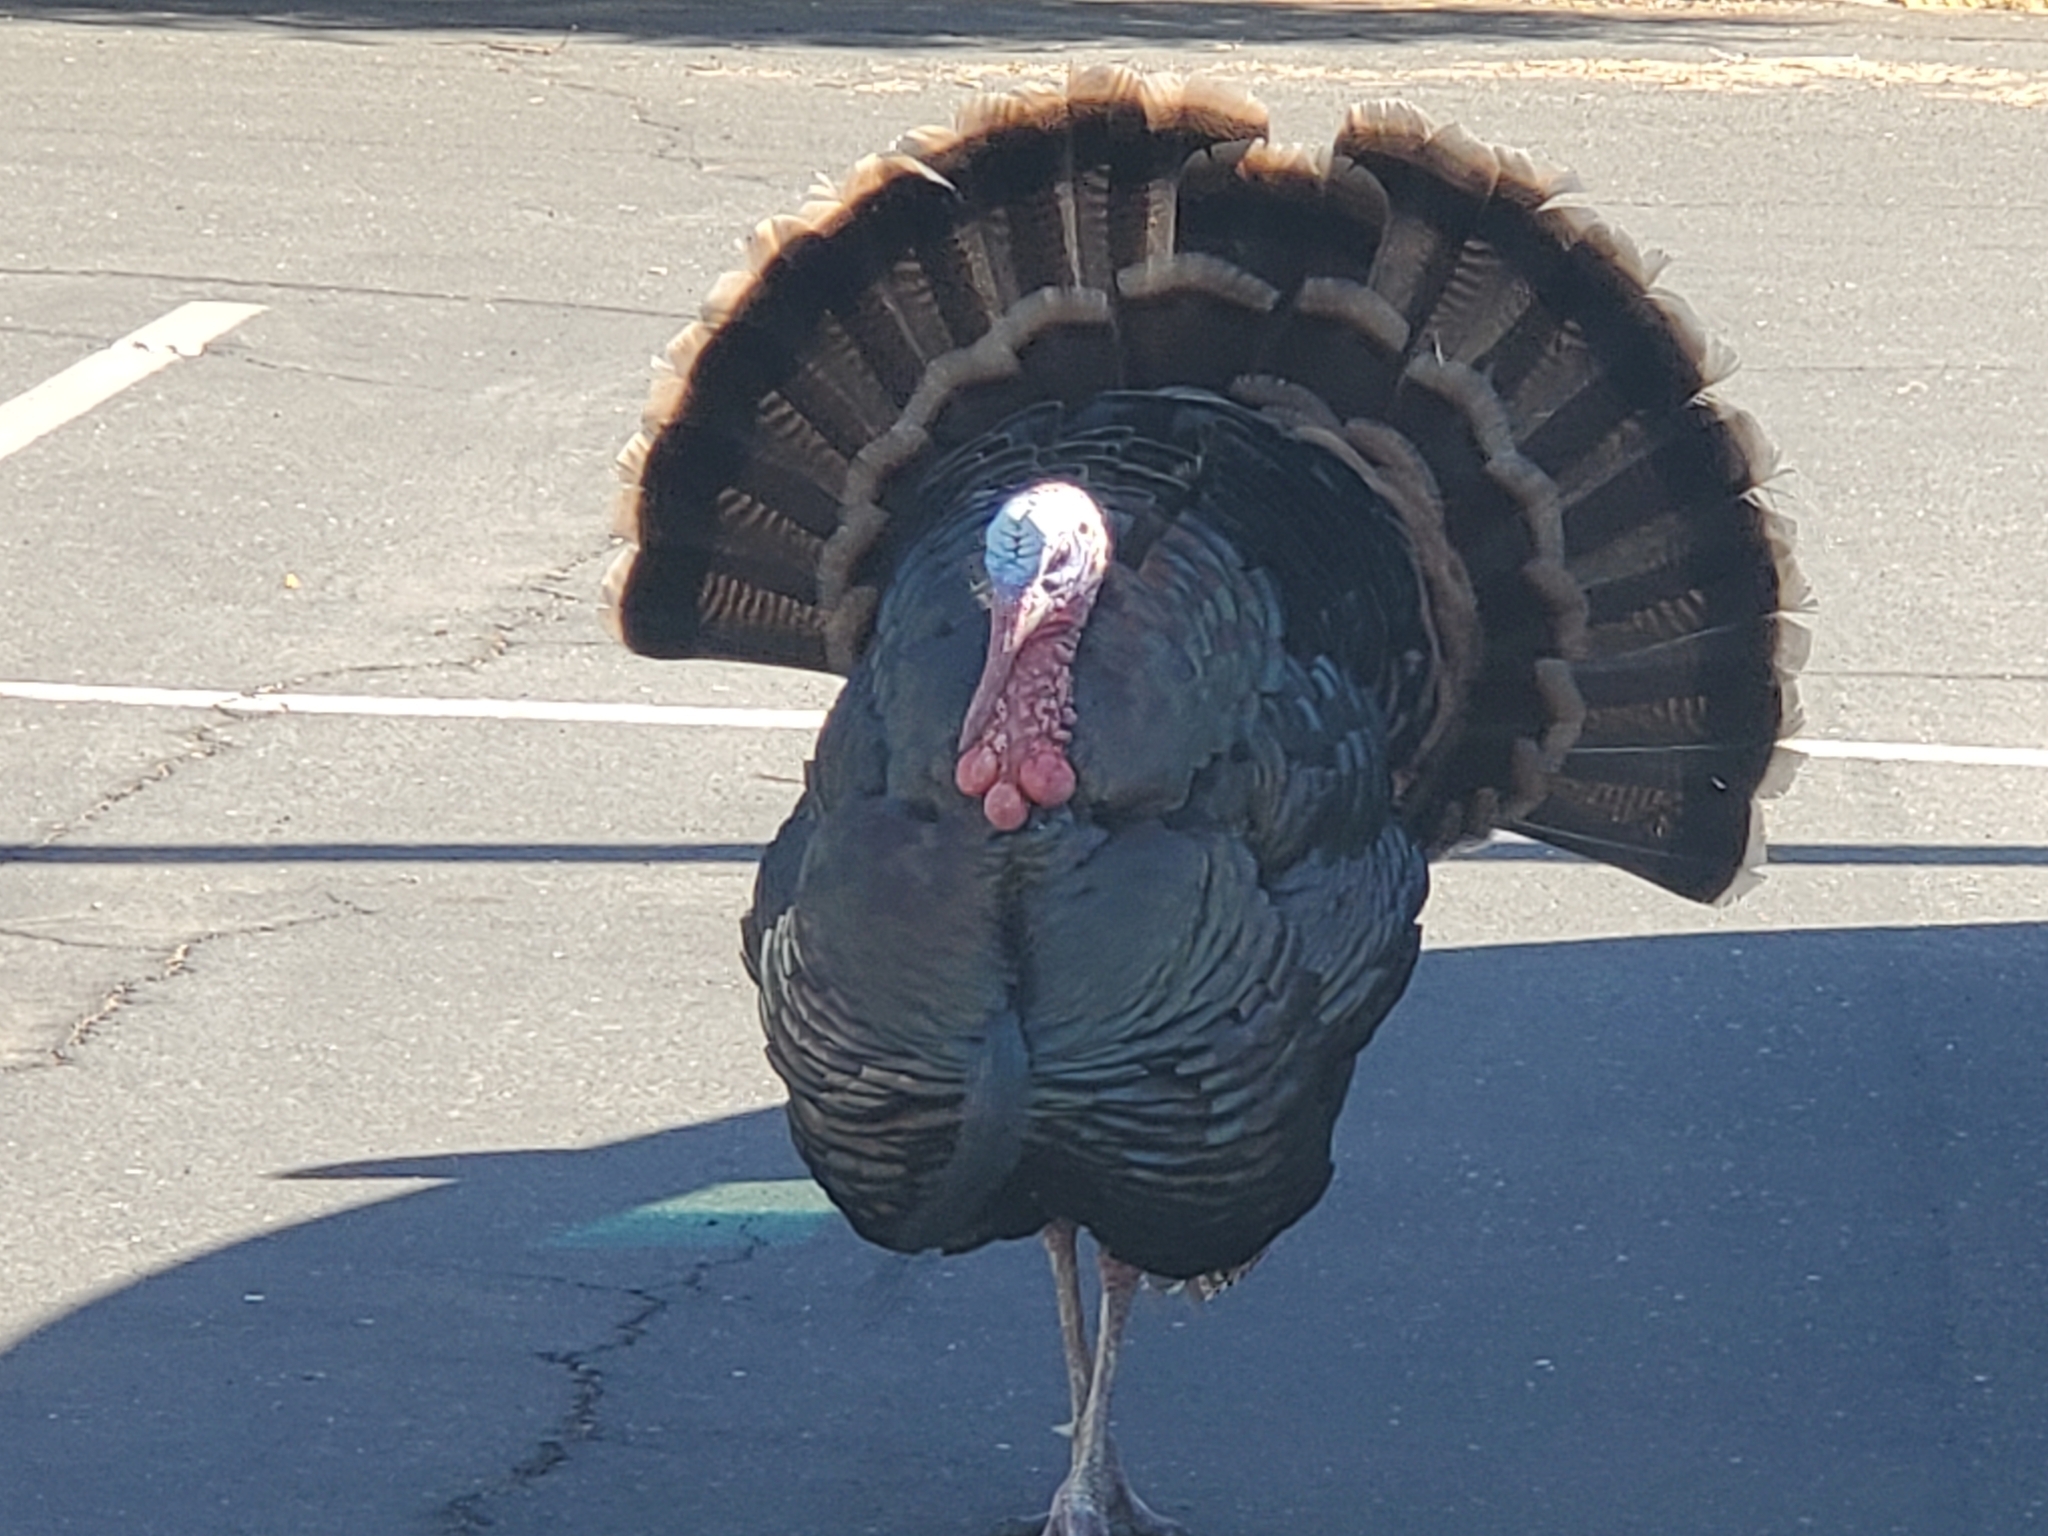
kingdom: Animalia
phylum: Chordata
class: Aves
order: Galliformes
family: Phasianidae
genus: Meleagris
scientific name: Meleagris gallopavo
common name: Wild turkey
